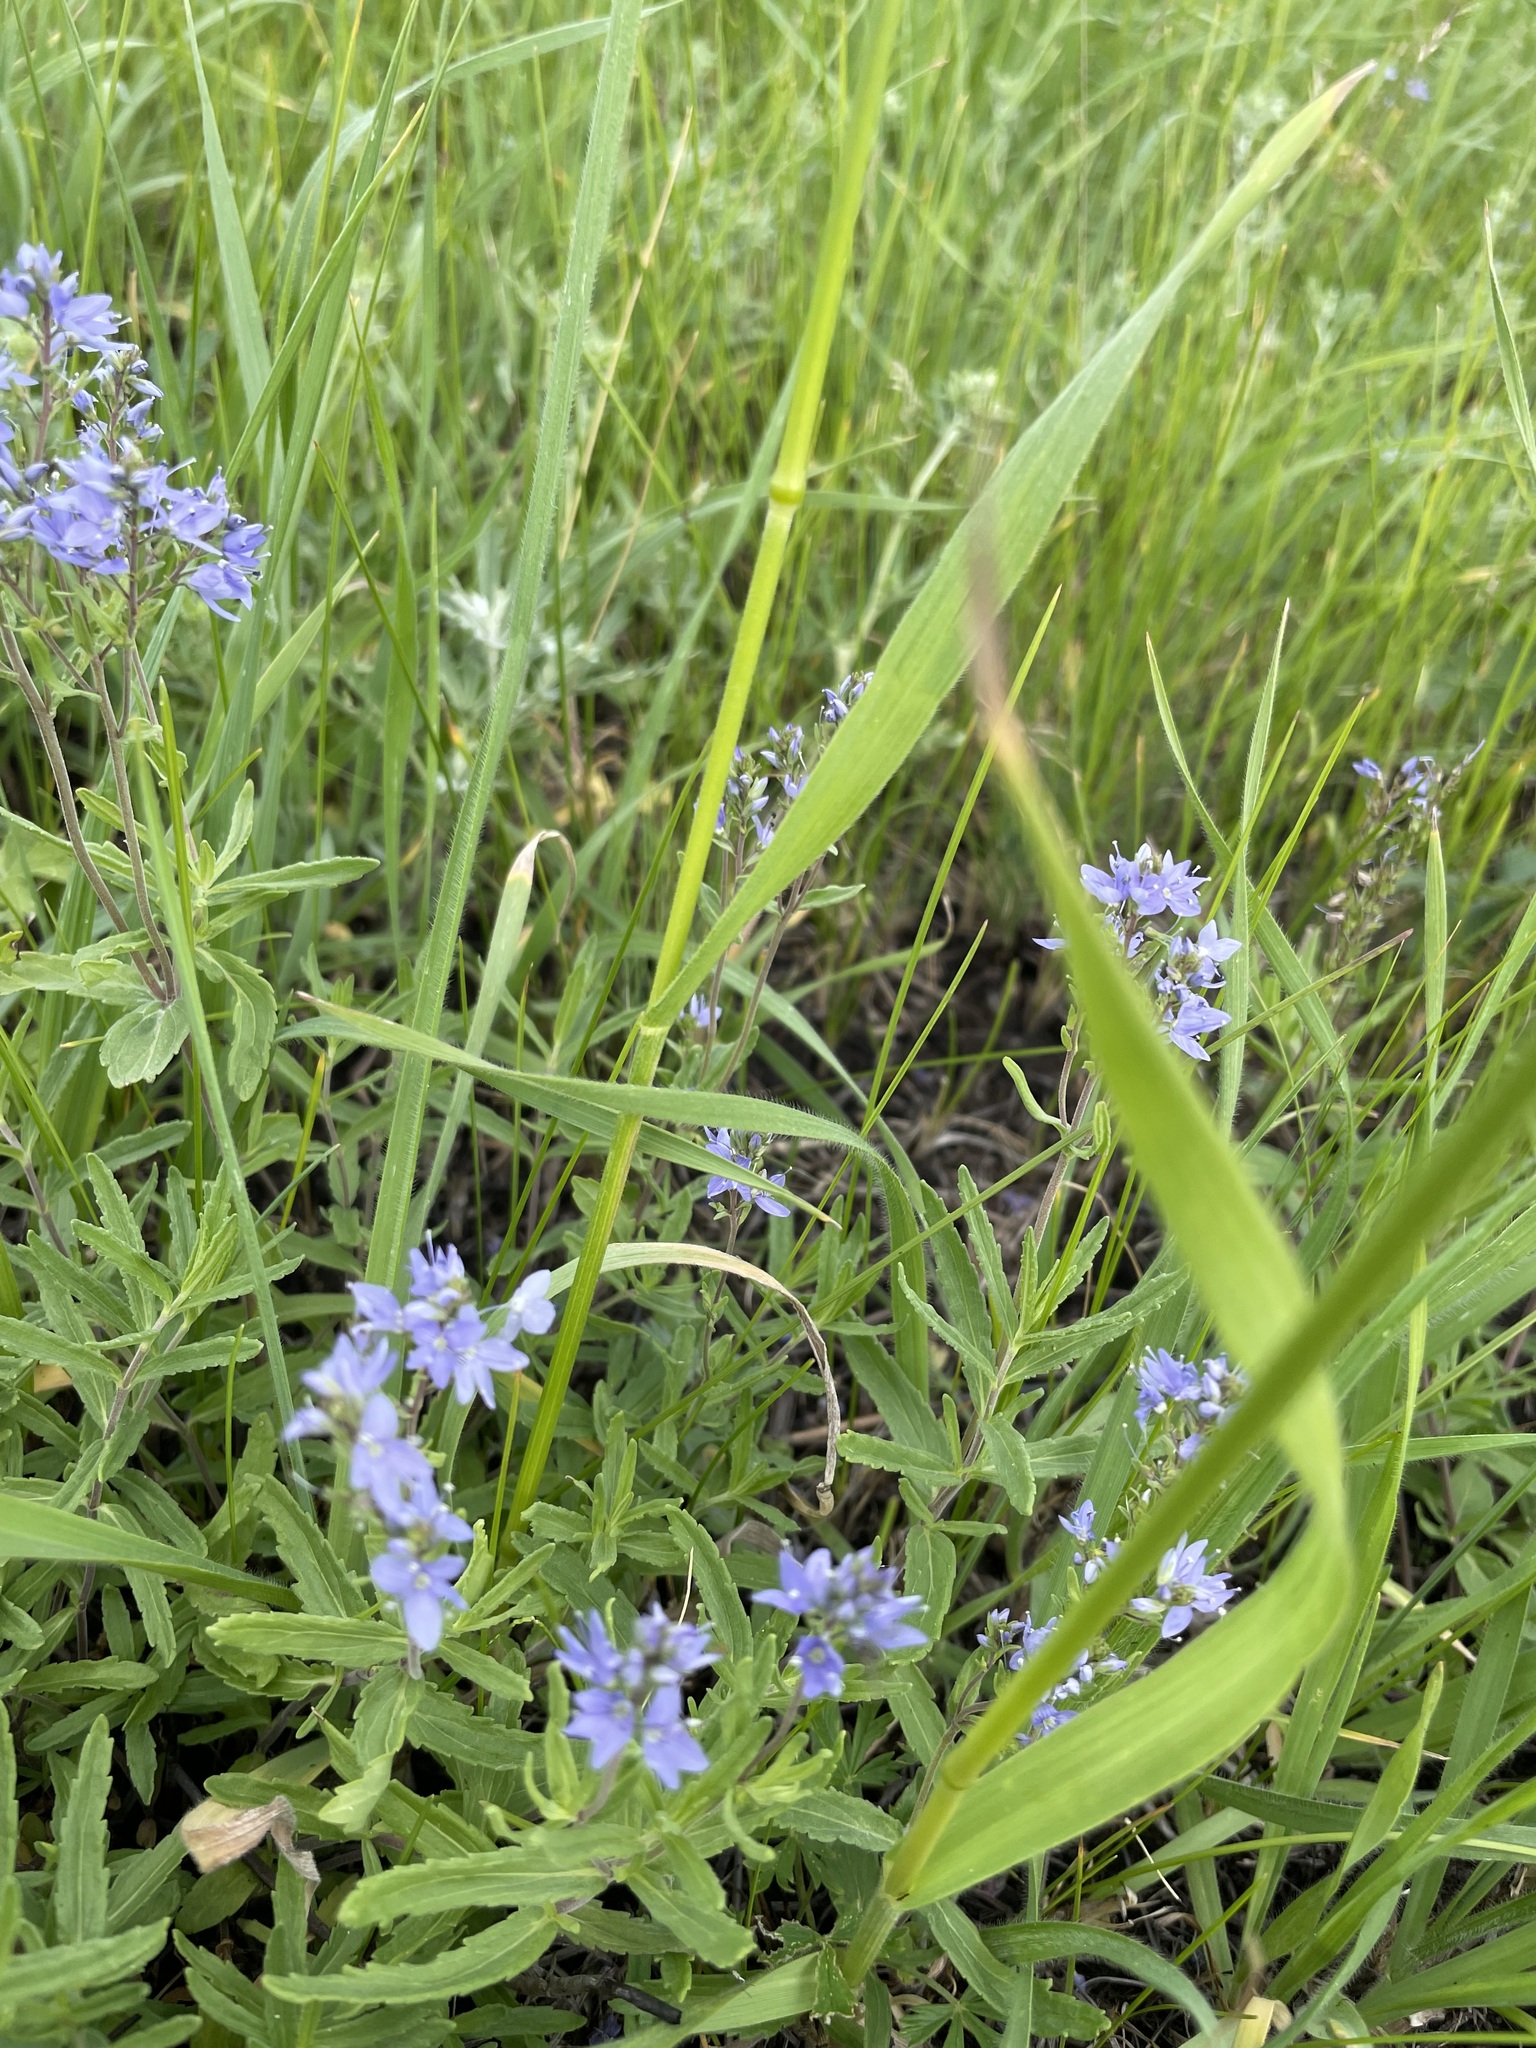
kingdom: Plantae
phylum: Tracheophyta
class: Magnoliopsida
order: Lamiales
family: Plantaginaceae
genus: Veronica
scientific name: Veronica prostrata
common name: Prostrate speedwell
